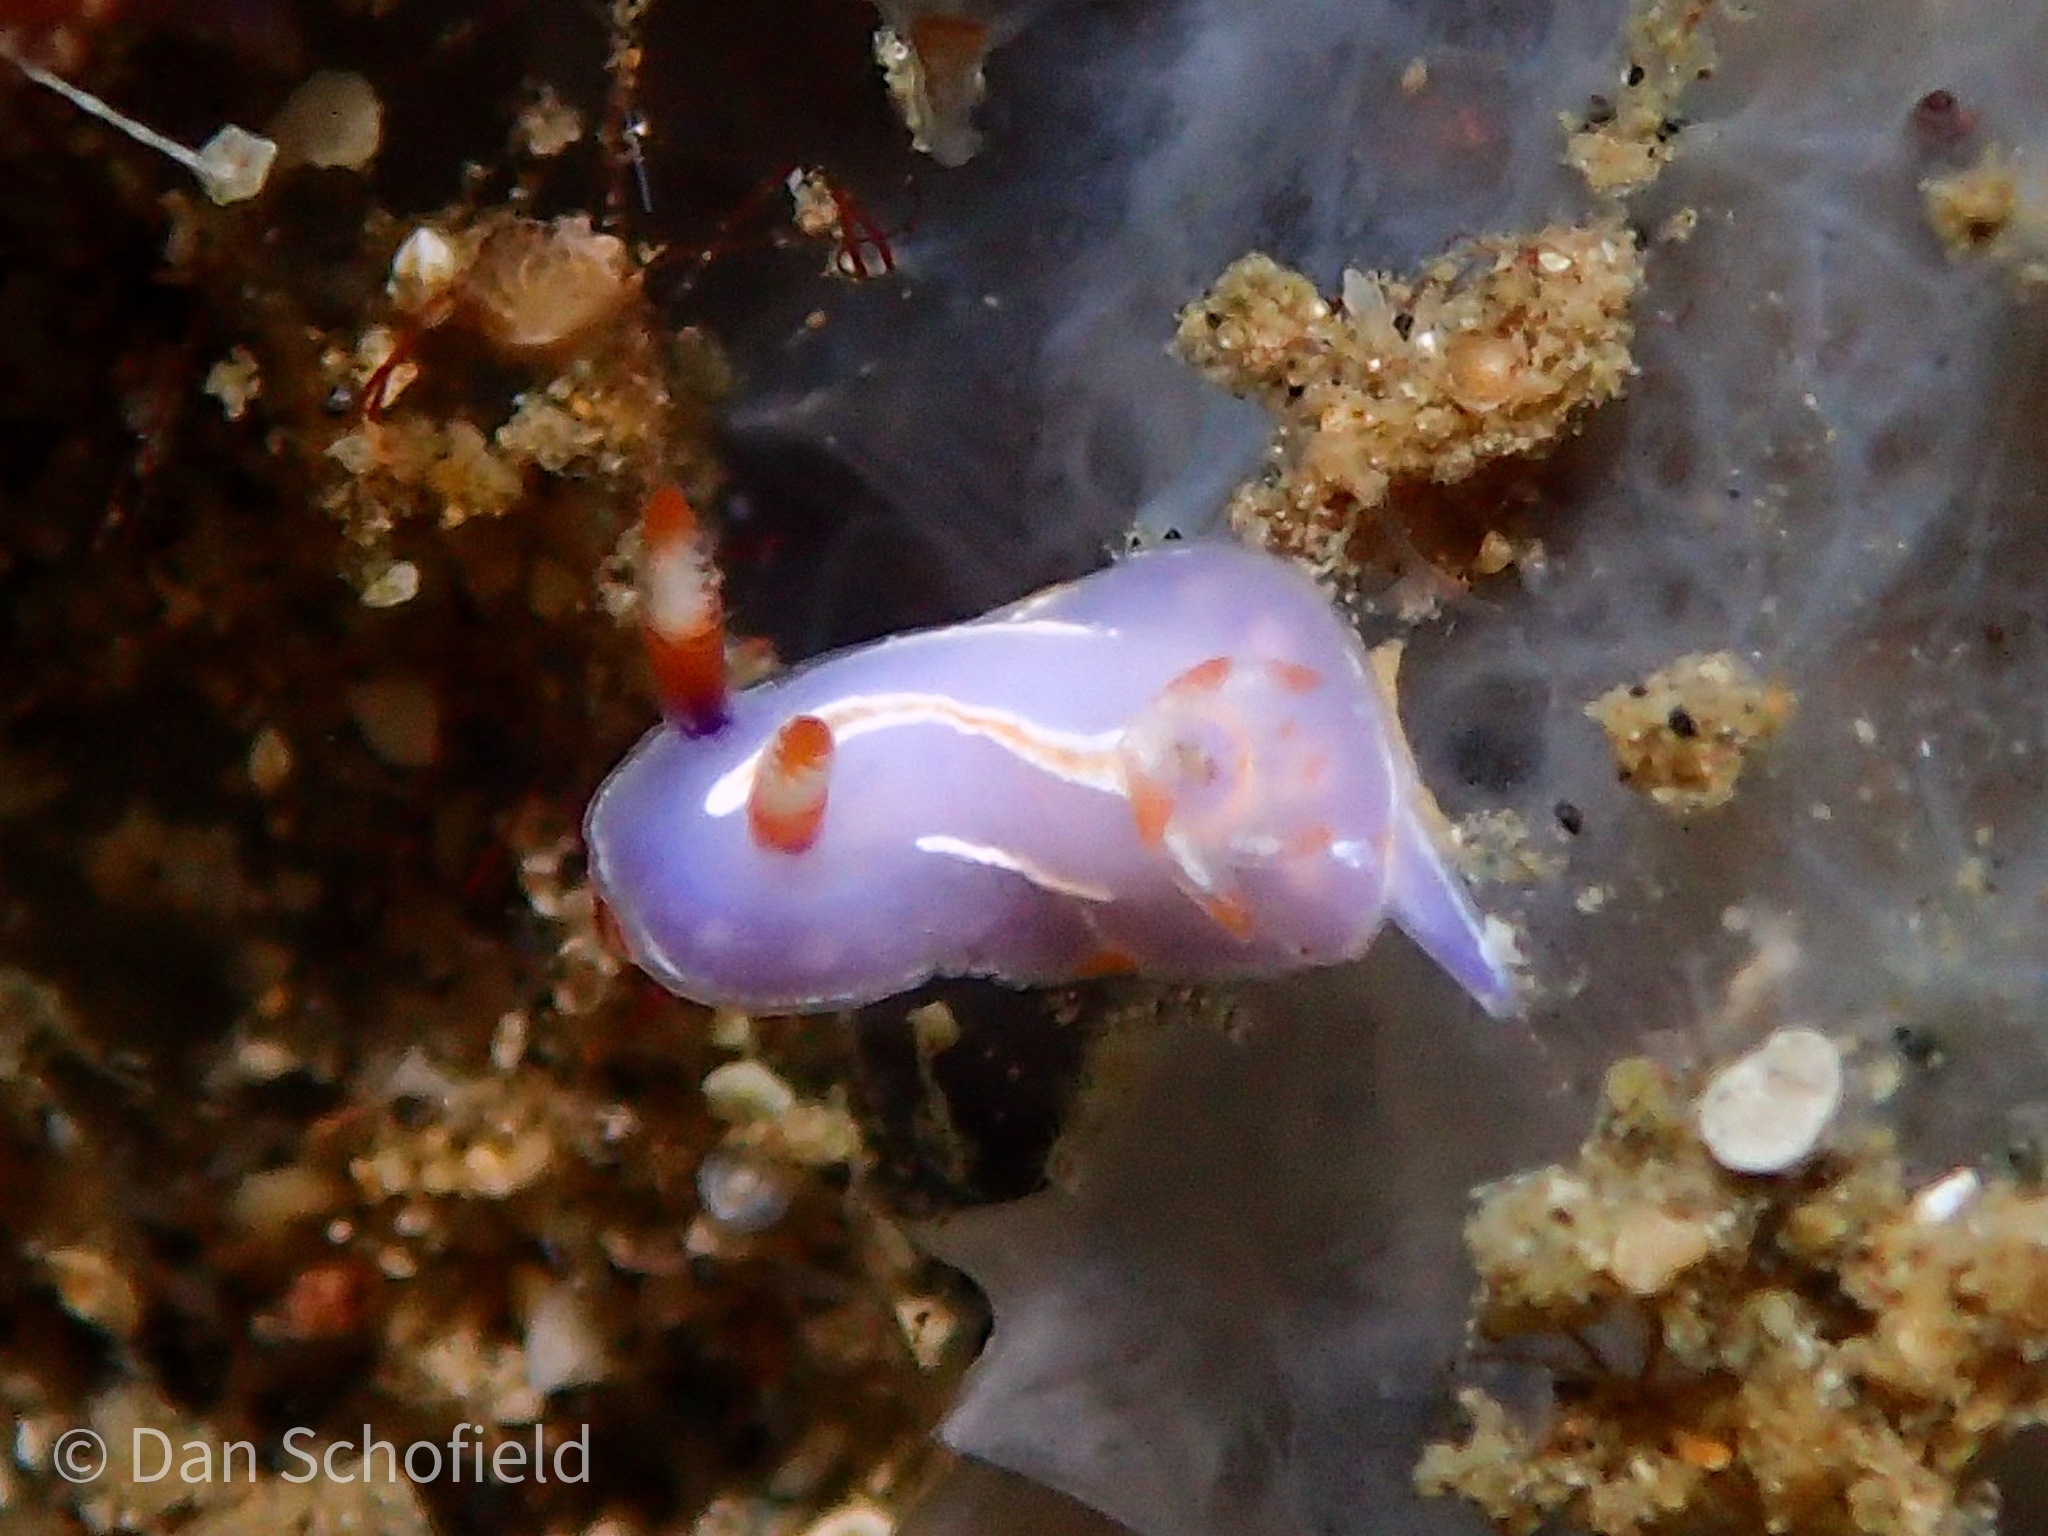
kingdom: Animalia
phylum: Mollusca
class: Gastropoda
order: Nudibranchia
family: Chromodorididae
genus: Mexichromis
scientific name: Mexichromis trilineata
